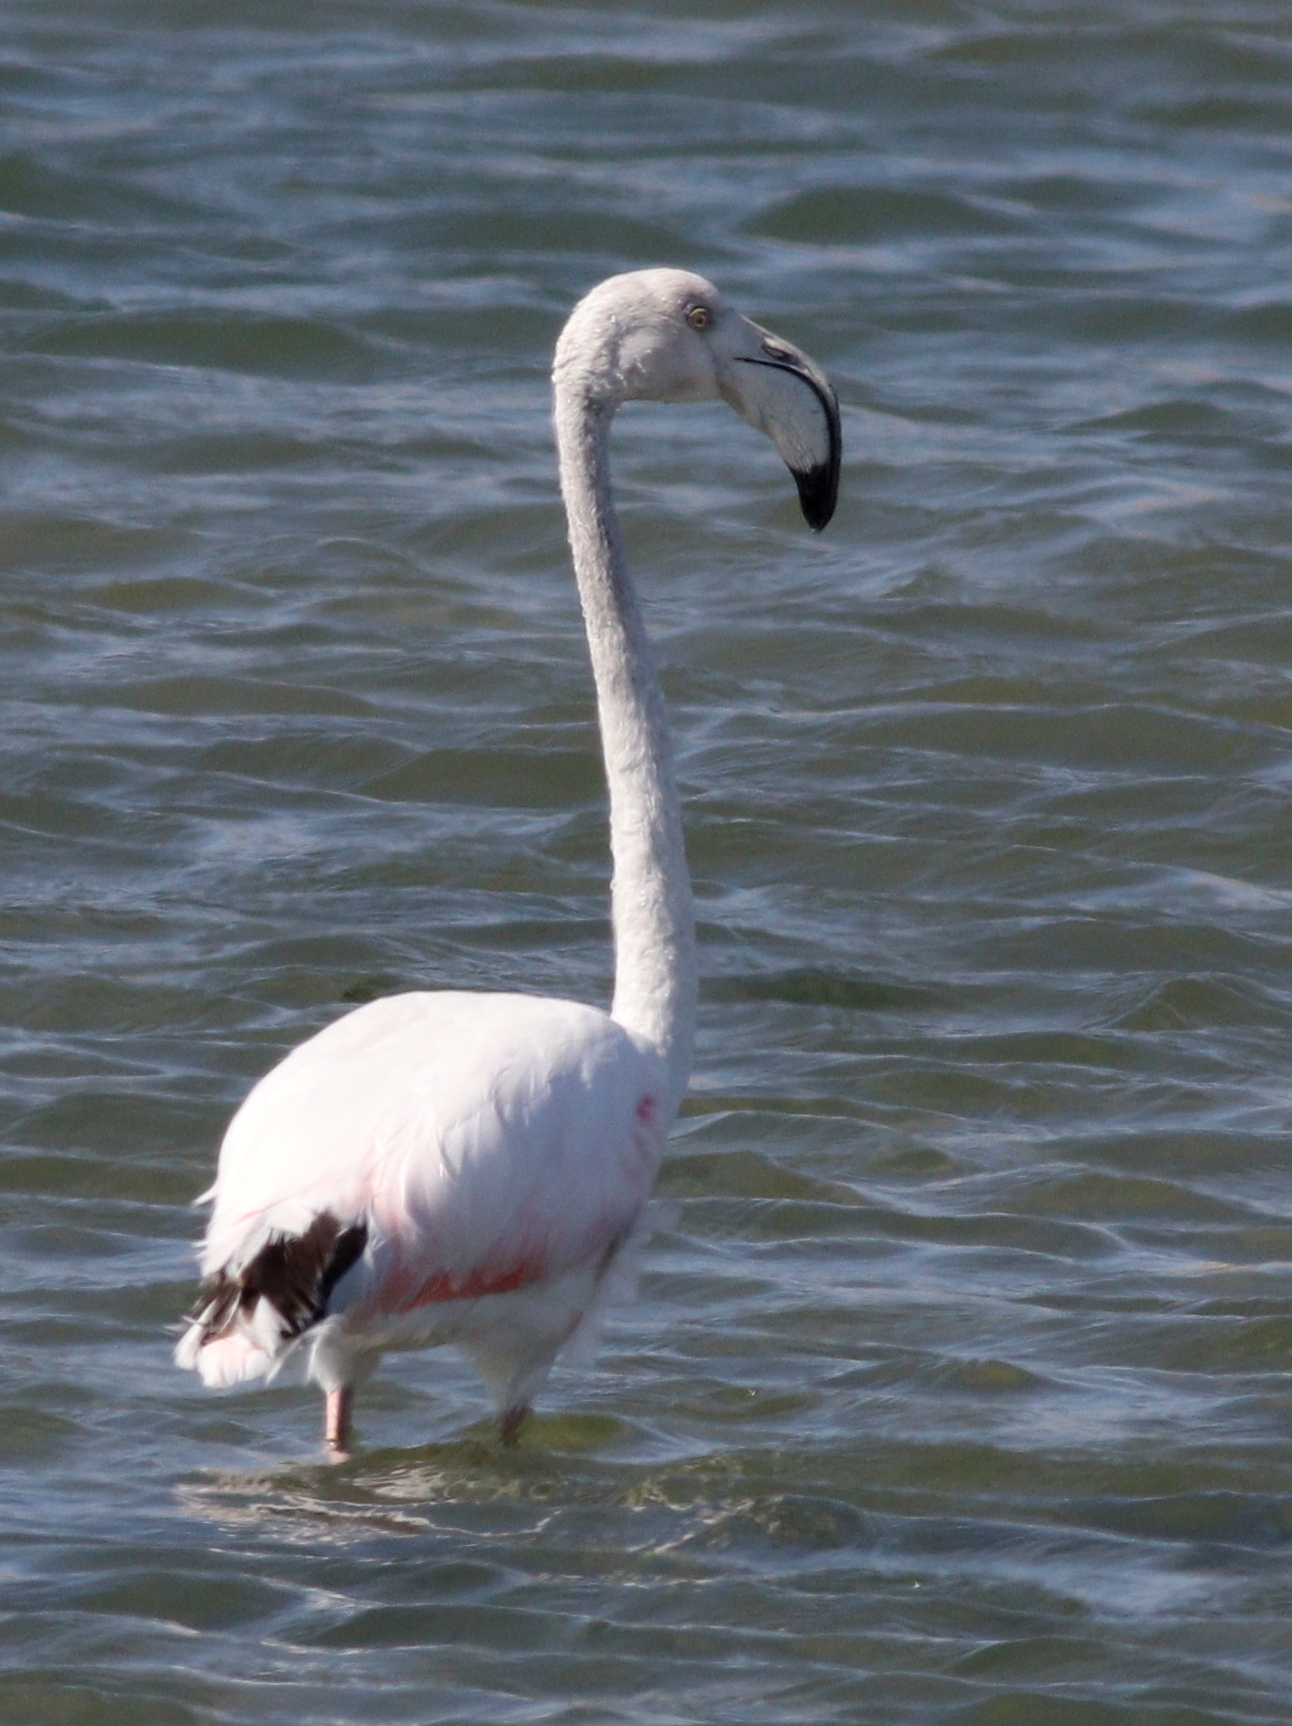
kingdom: Animalia
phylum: Chordata
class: Aves
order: Phoenicopteriformes
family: Phoenicopteridae
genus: Phoenicopterus
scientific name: Phoenicopterus roseus
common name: Greater flamingo
